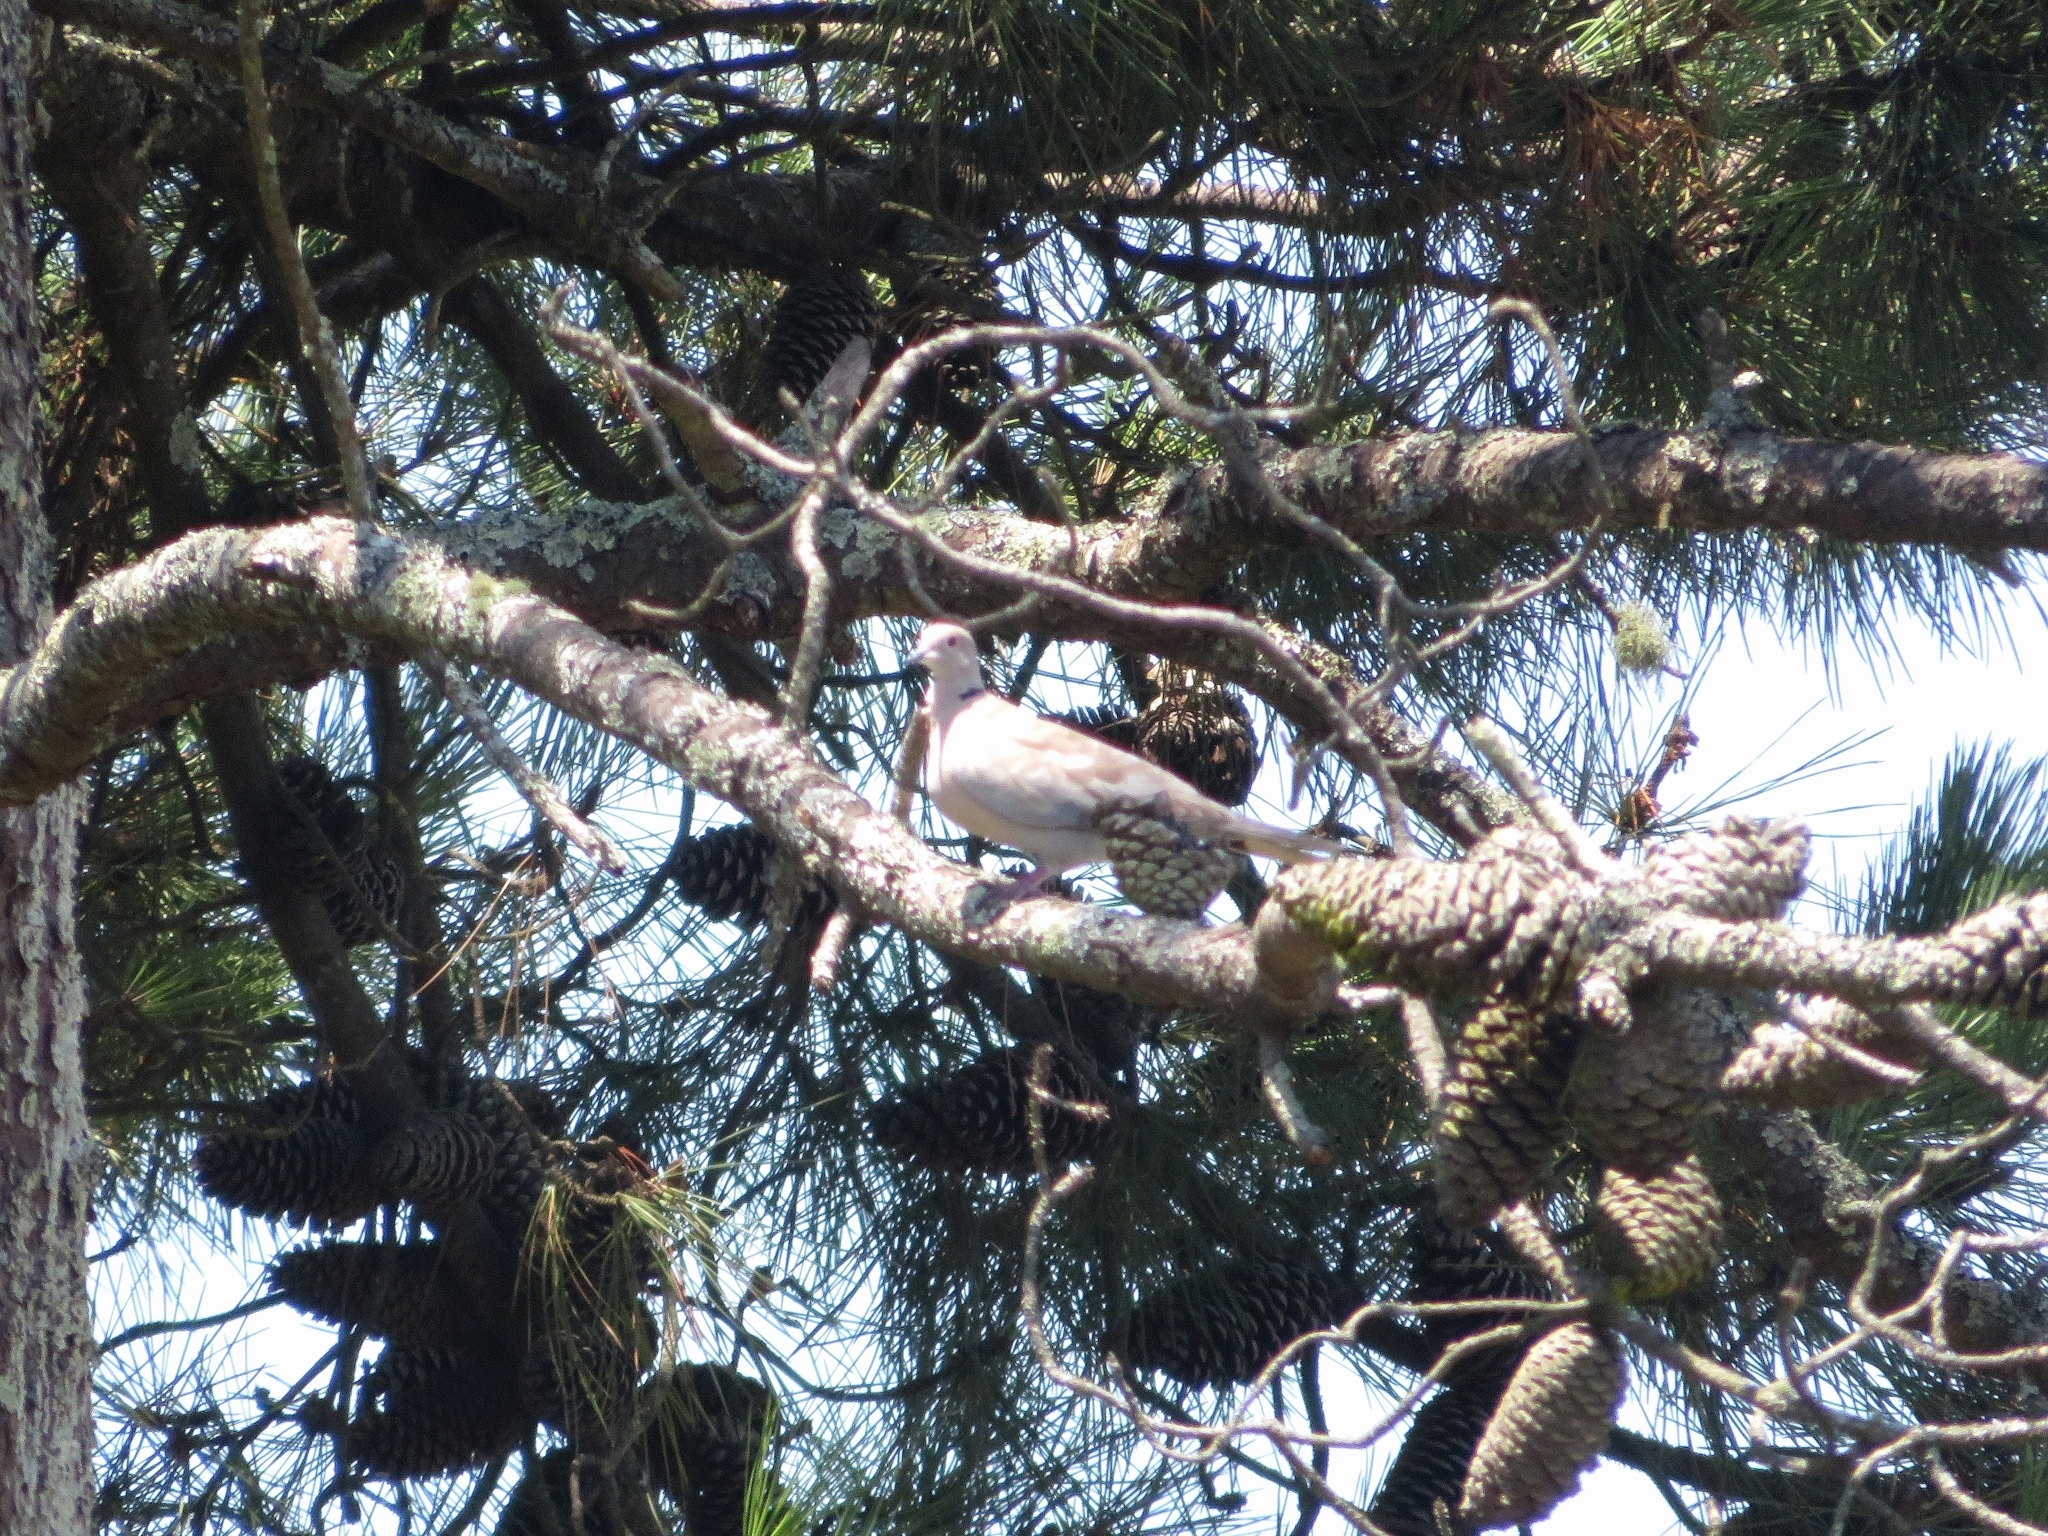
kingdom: Animalia
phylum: Chordata
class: Aves
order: Columbiformes
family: Columbidae
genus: Streptopelia
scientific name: Streptopelia decaocto
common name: Eurasian collared dove
